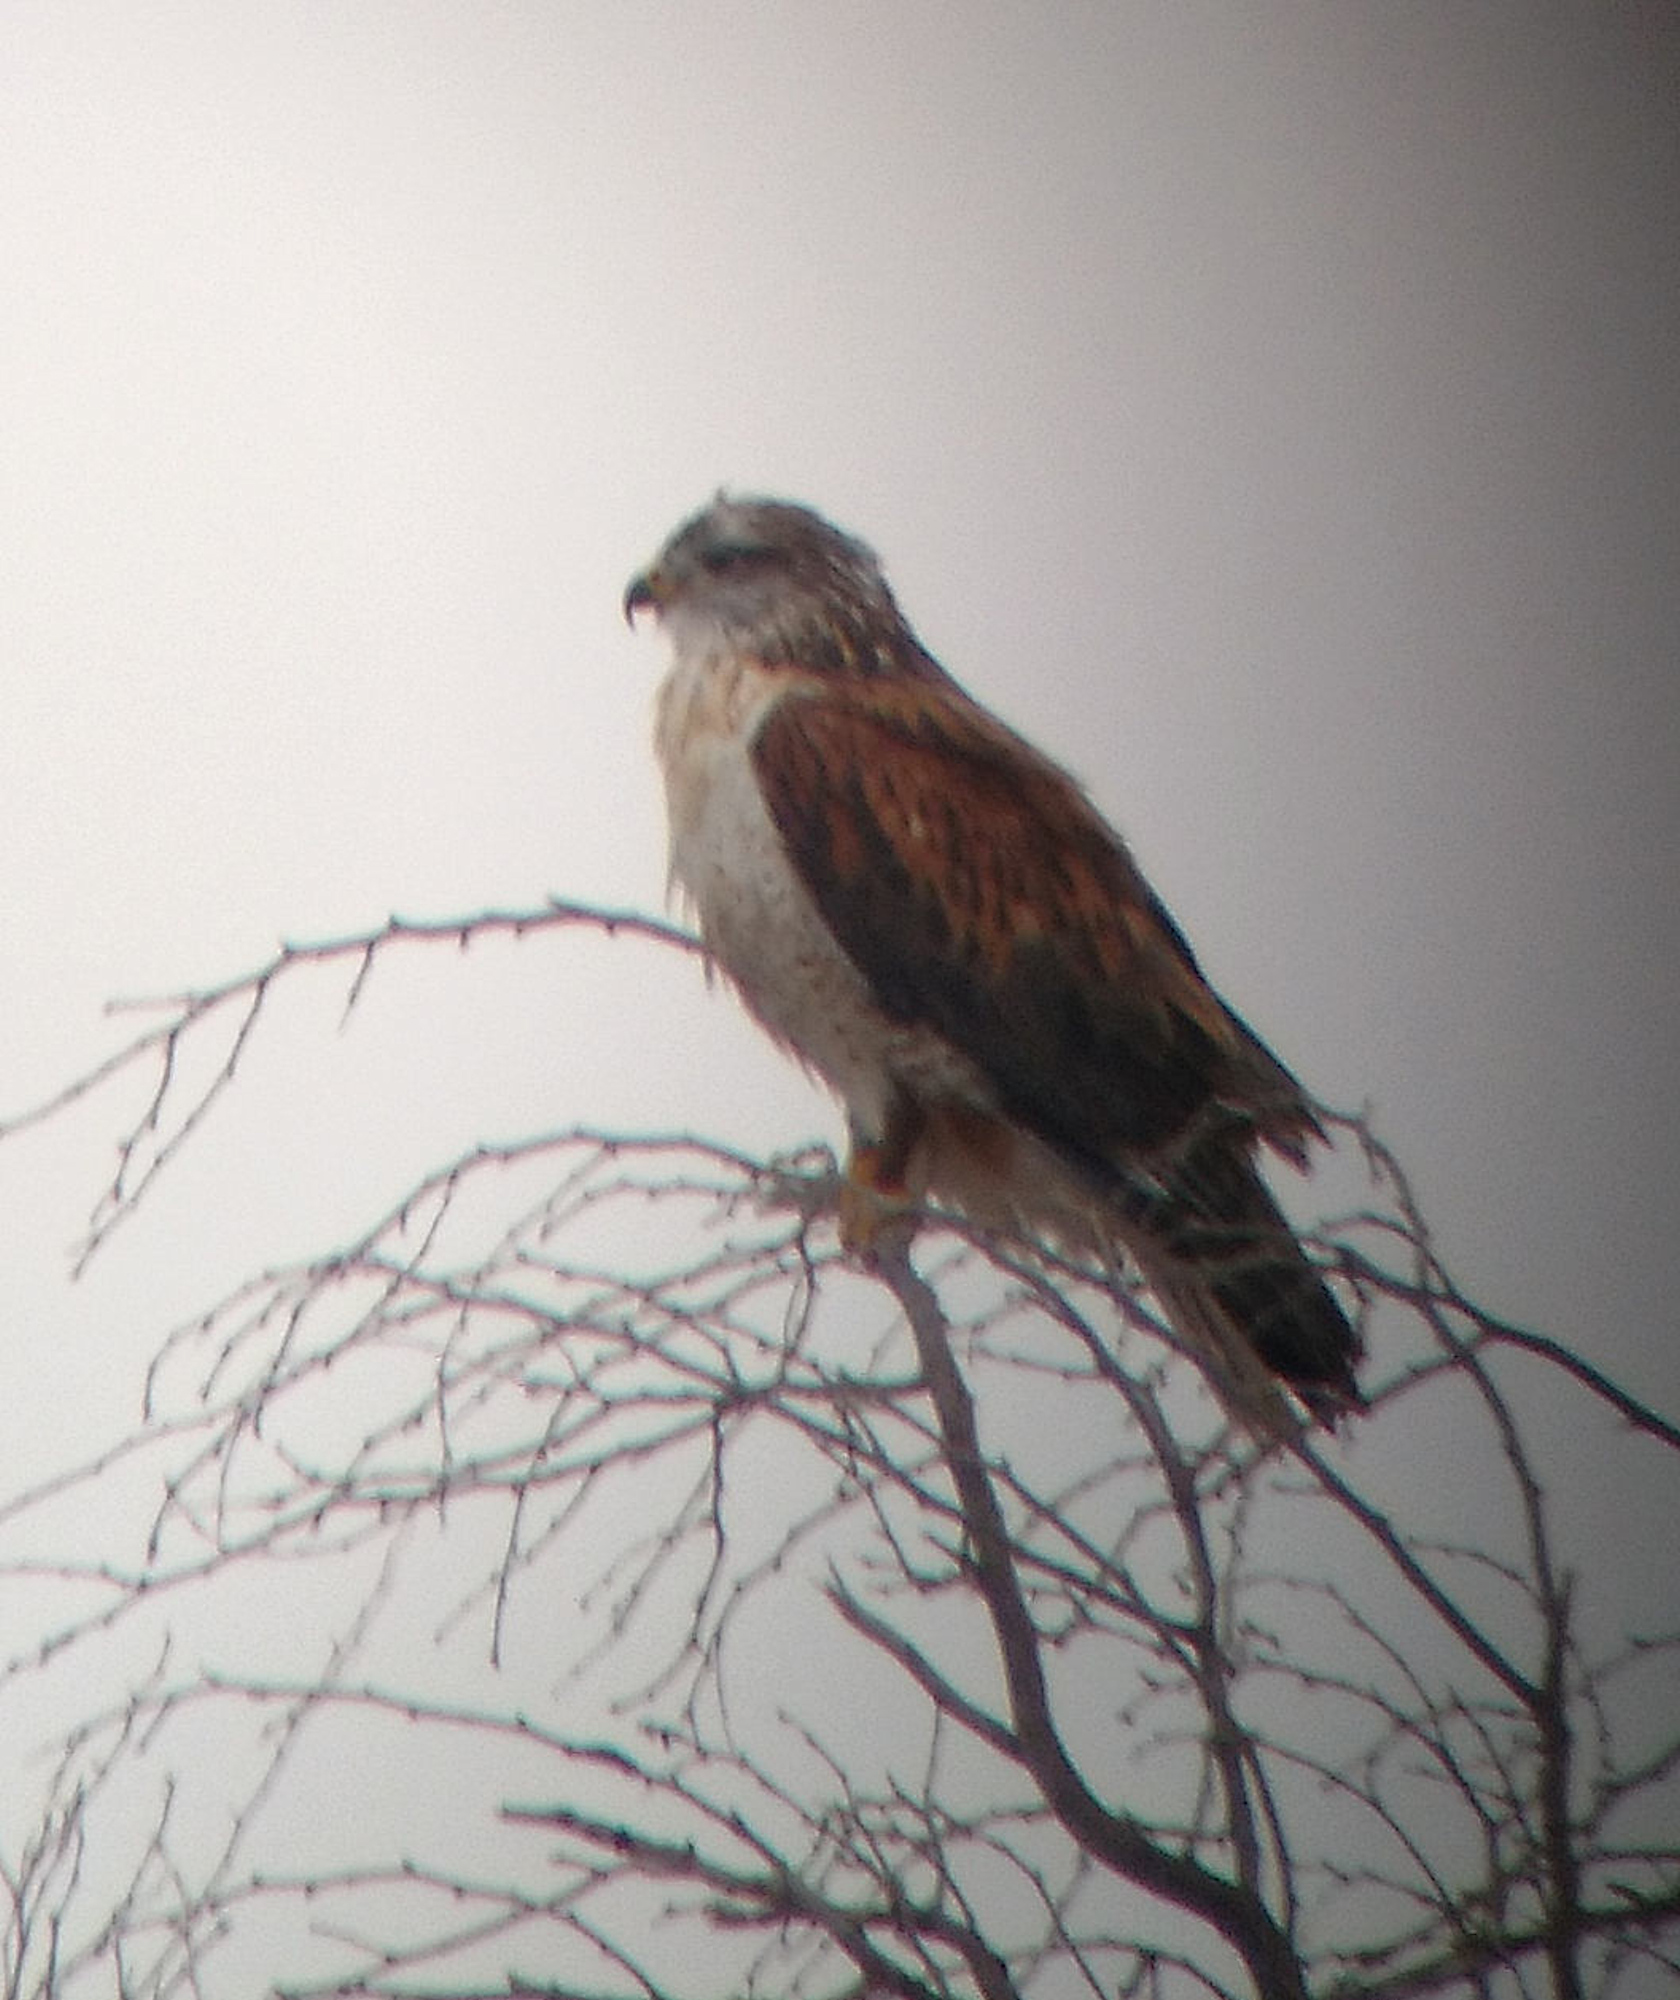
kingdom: Animalia
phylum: Chordata
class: Aves
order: Accipitriformes
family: Accipitridae
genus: Buteo
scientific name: Buteo regalis
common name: Ferruginous hawk
